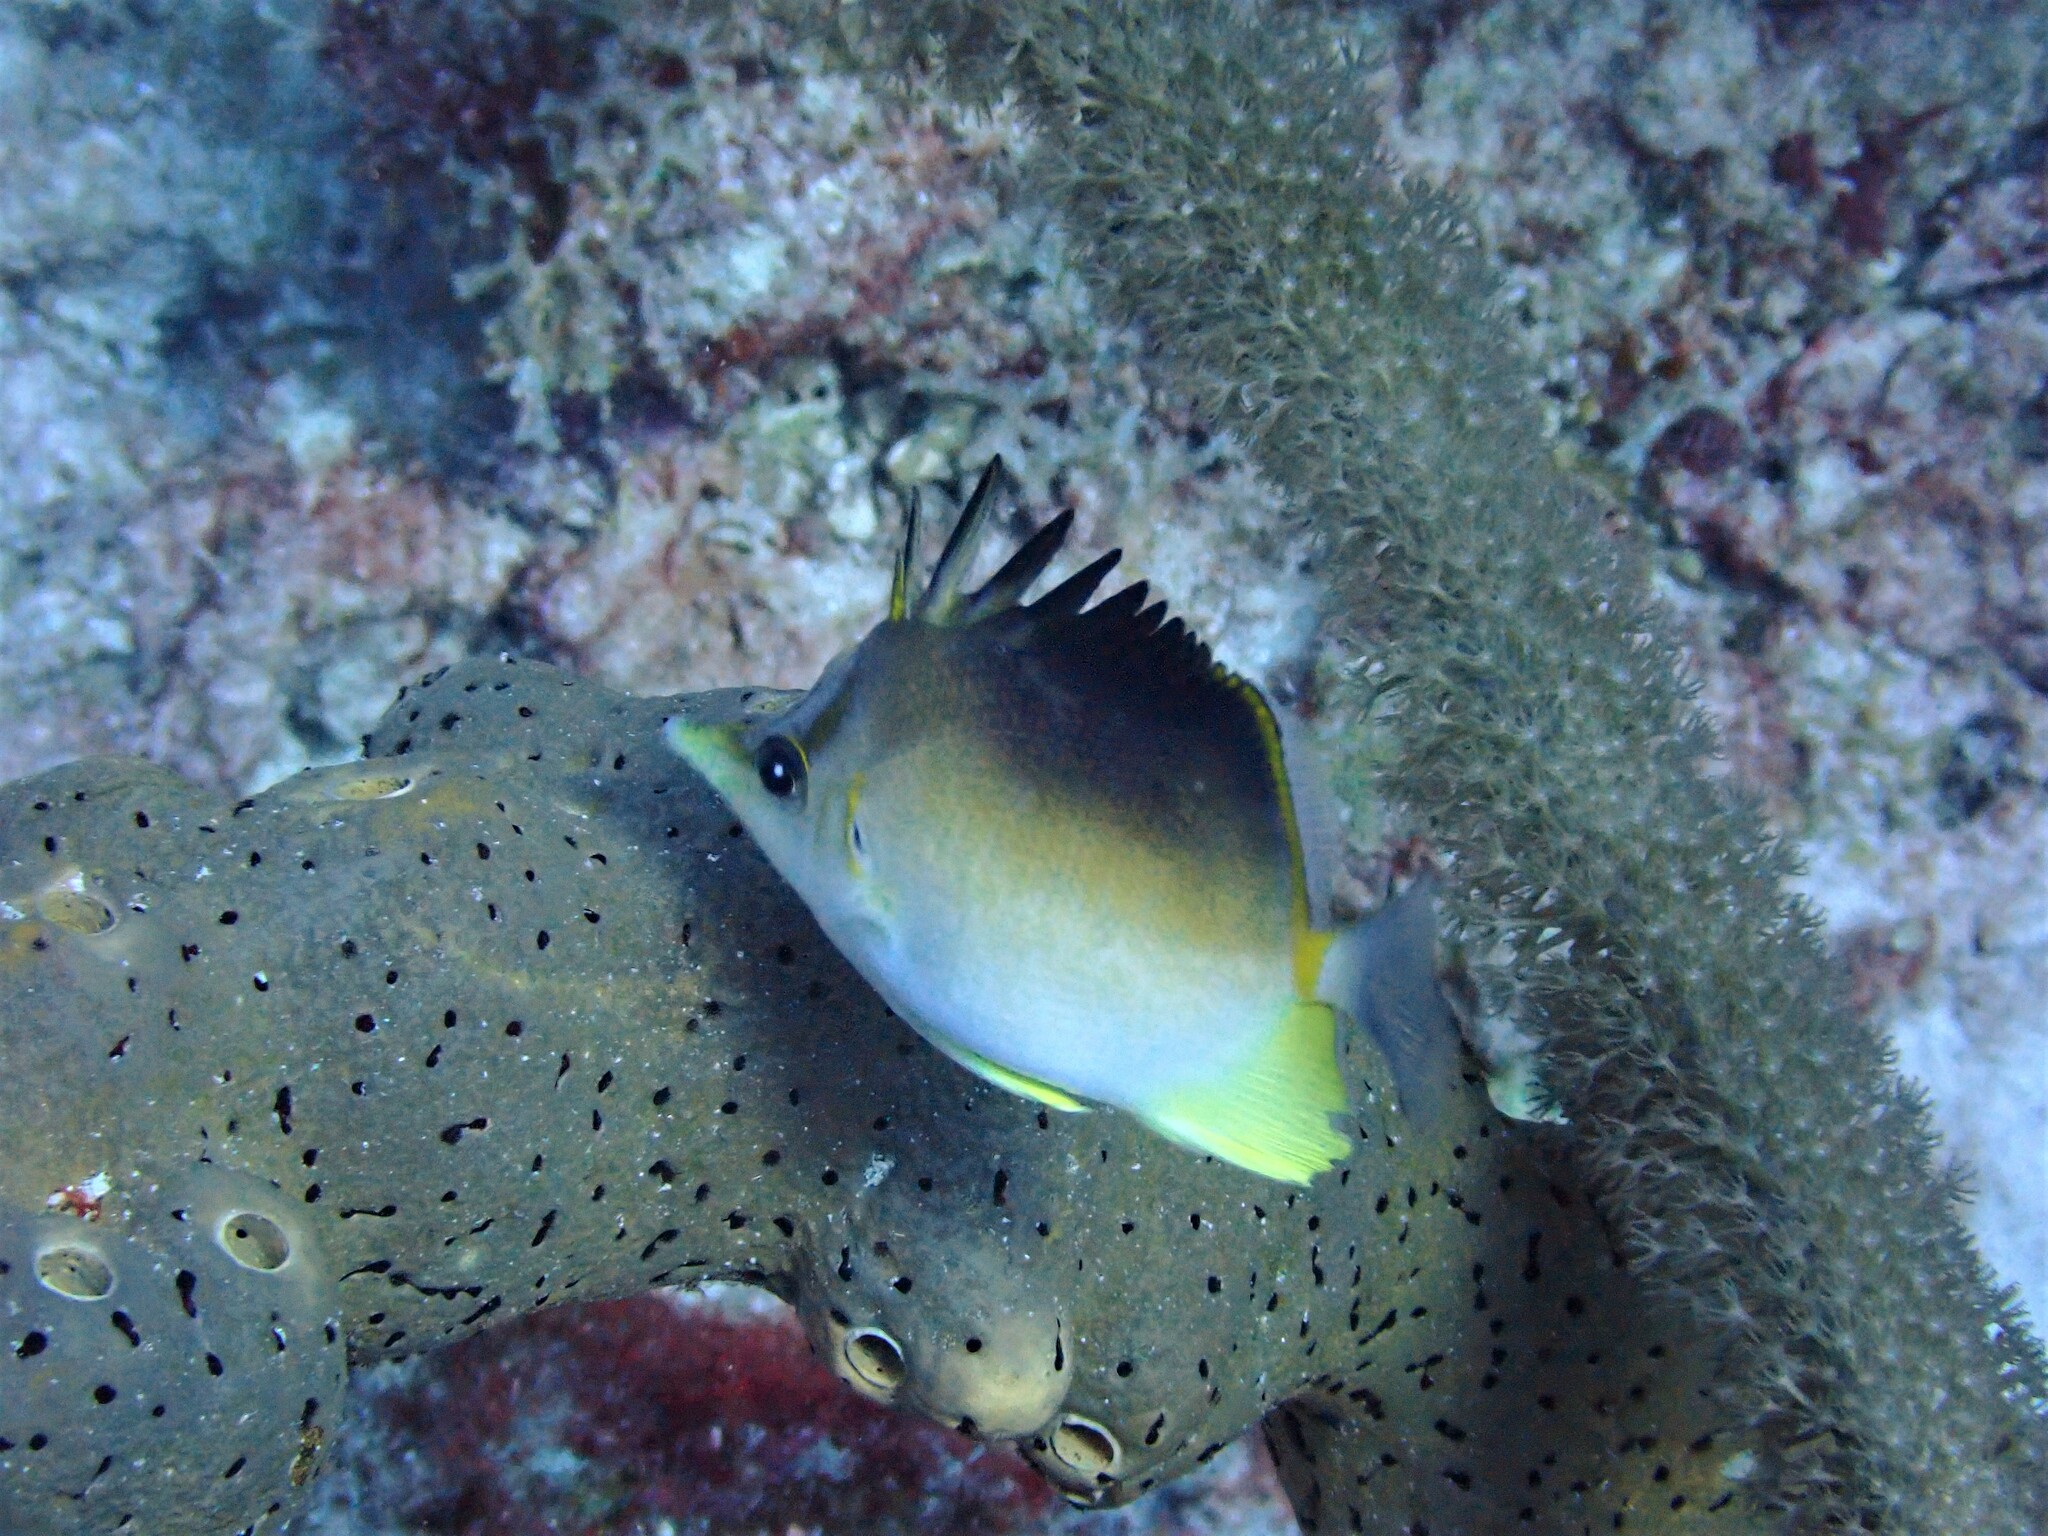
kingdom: Animalia
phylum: Chordata
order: Perciformes
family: Chaetodontidae
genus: Prognathodes
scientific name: Prognathodes aculeatus
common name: Longsnout butterflyfish
